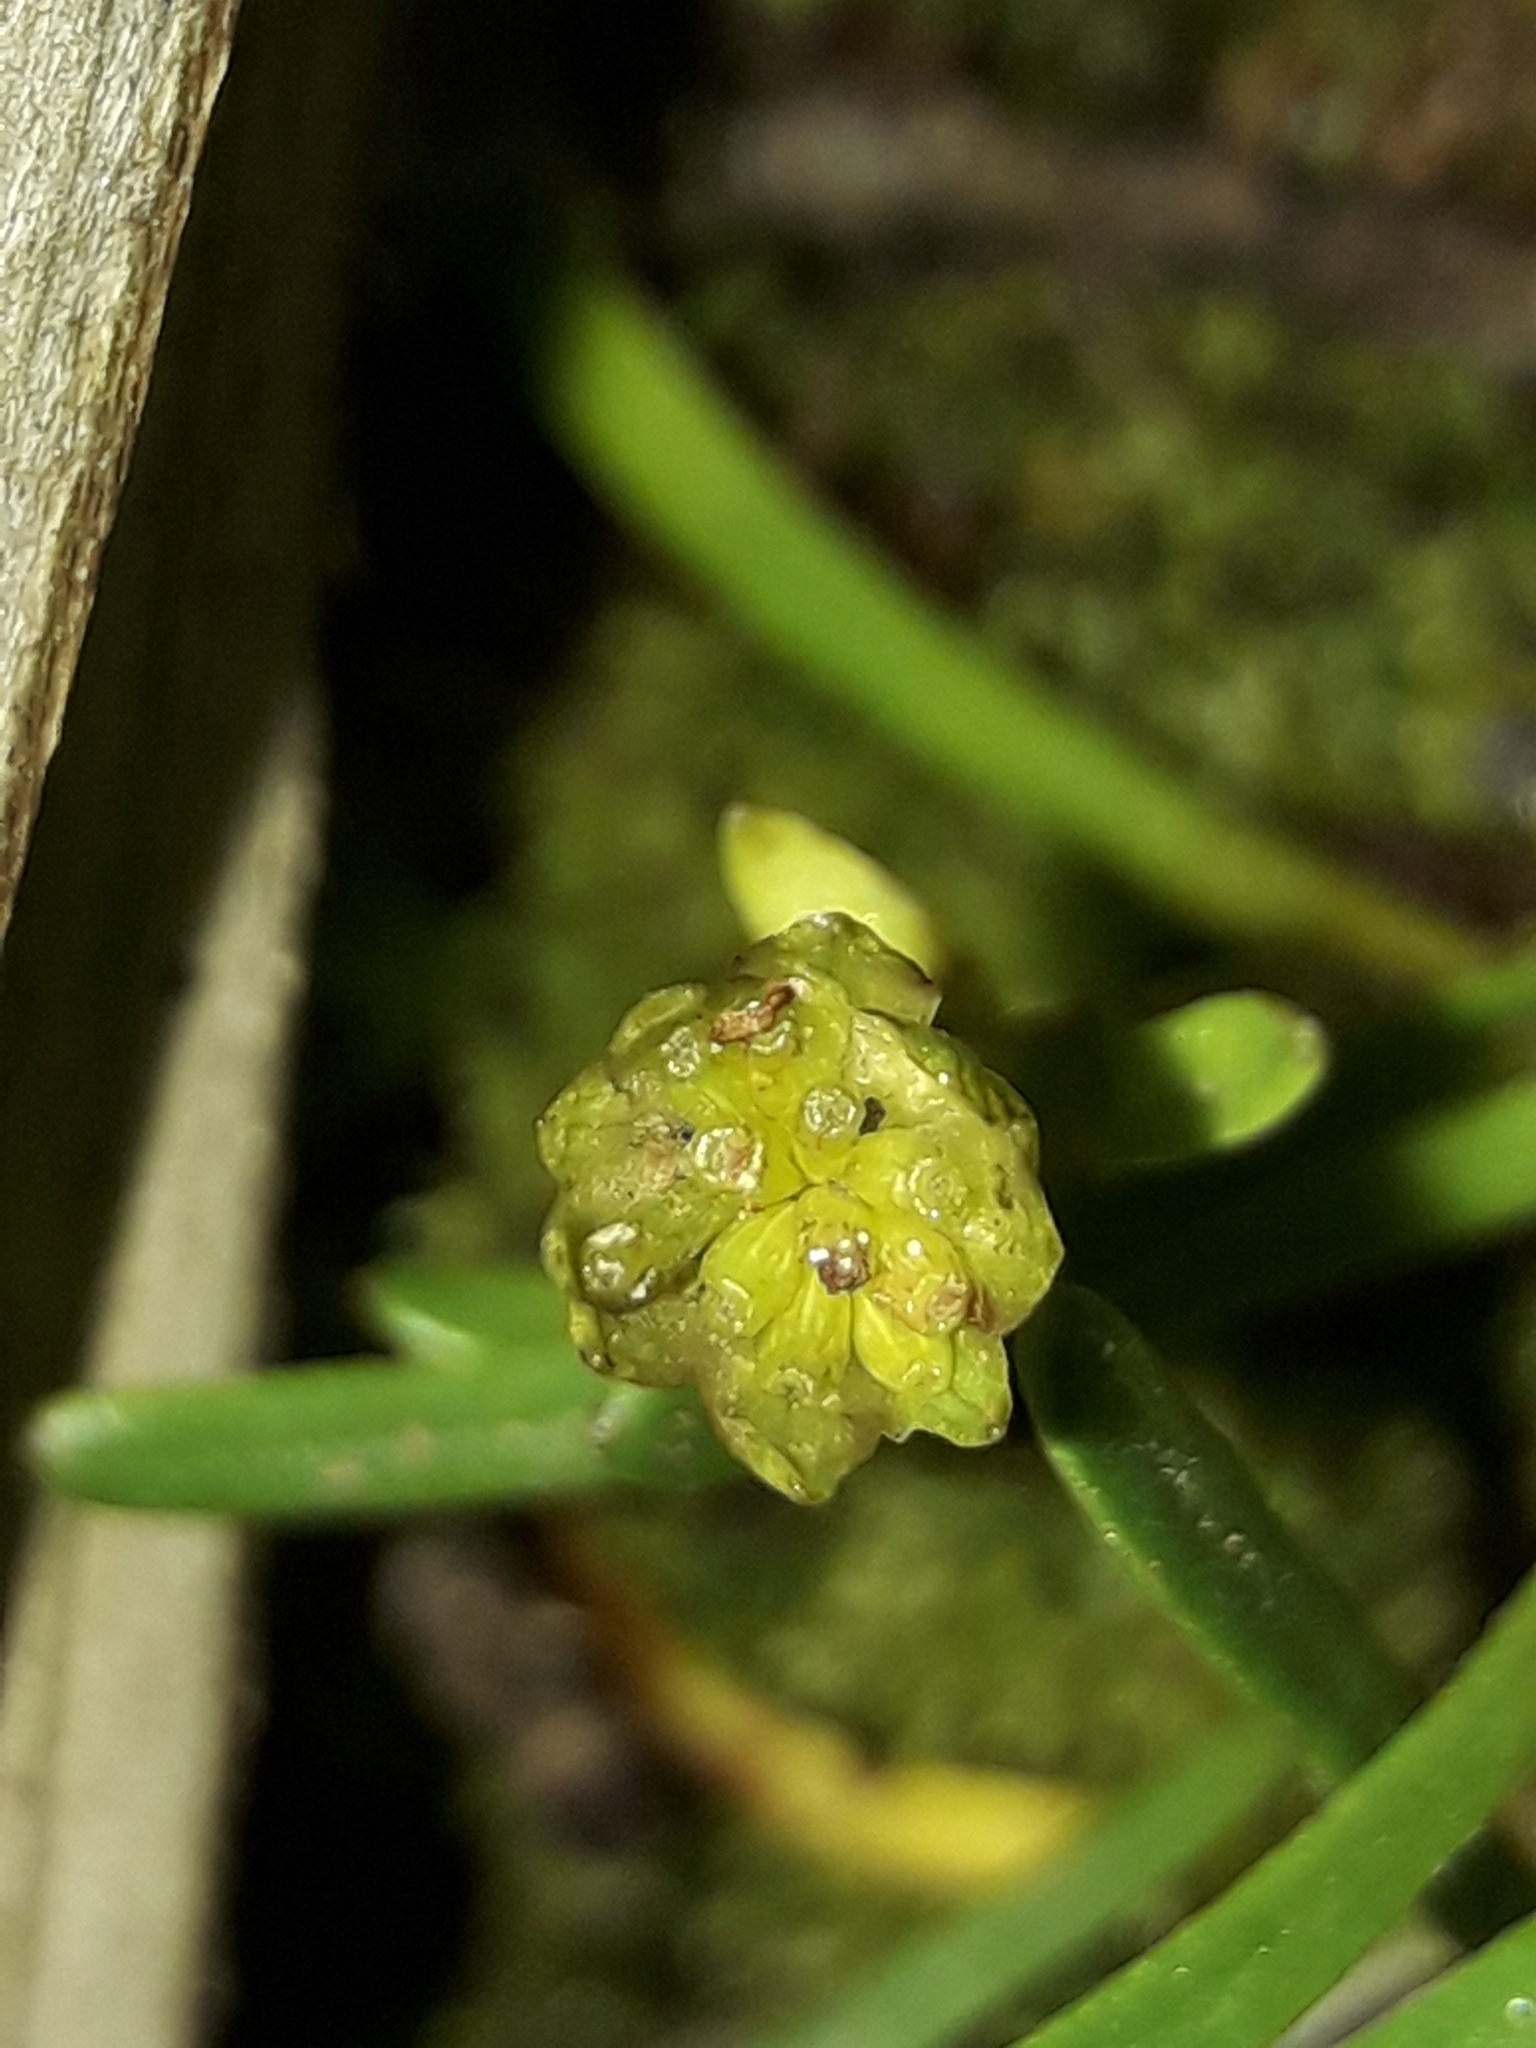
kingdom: Plantae
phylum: Tracheophyta
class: Magnoliopsida
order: Asterales
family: Asteraceae
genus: Abrotanella
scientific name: Abrotanella linearis
